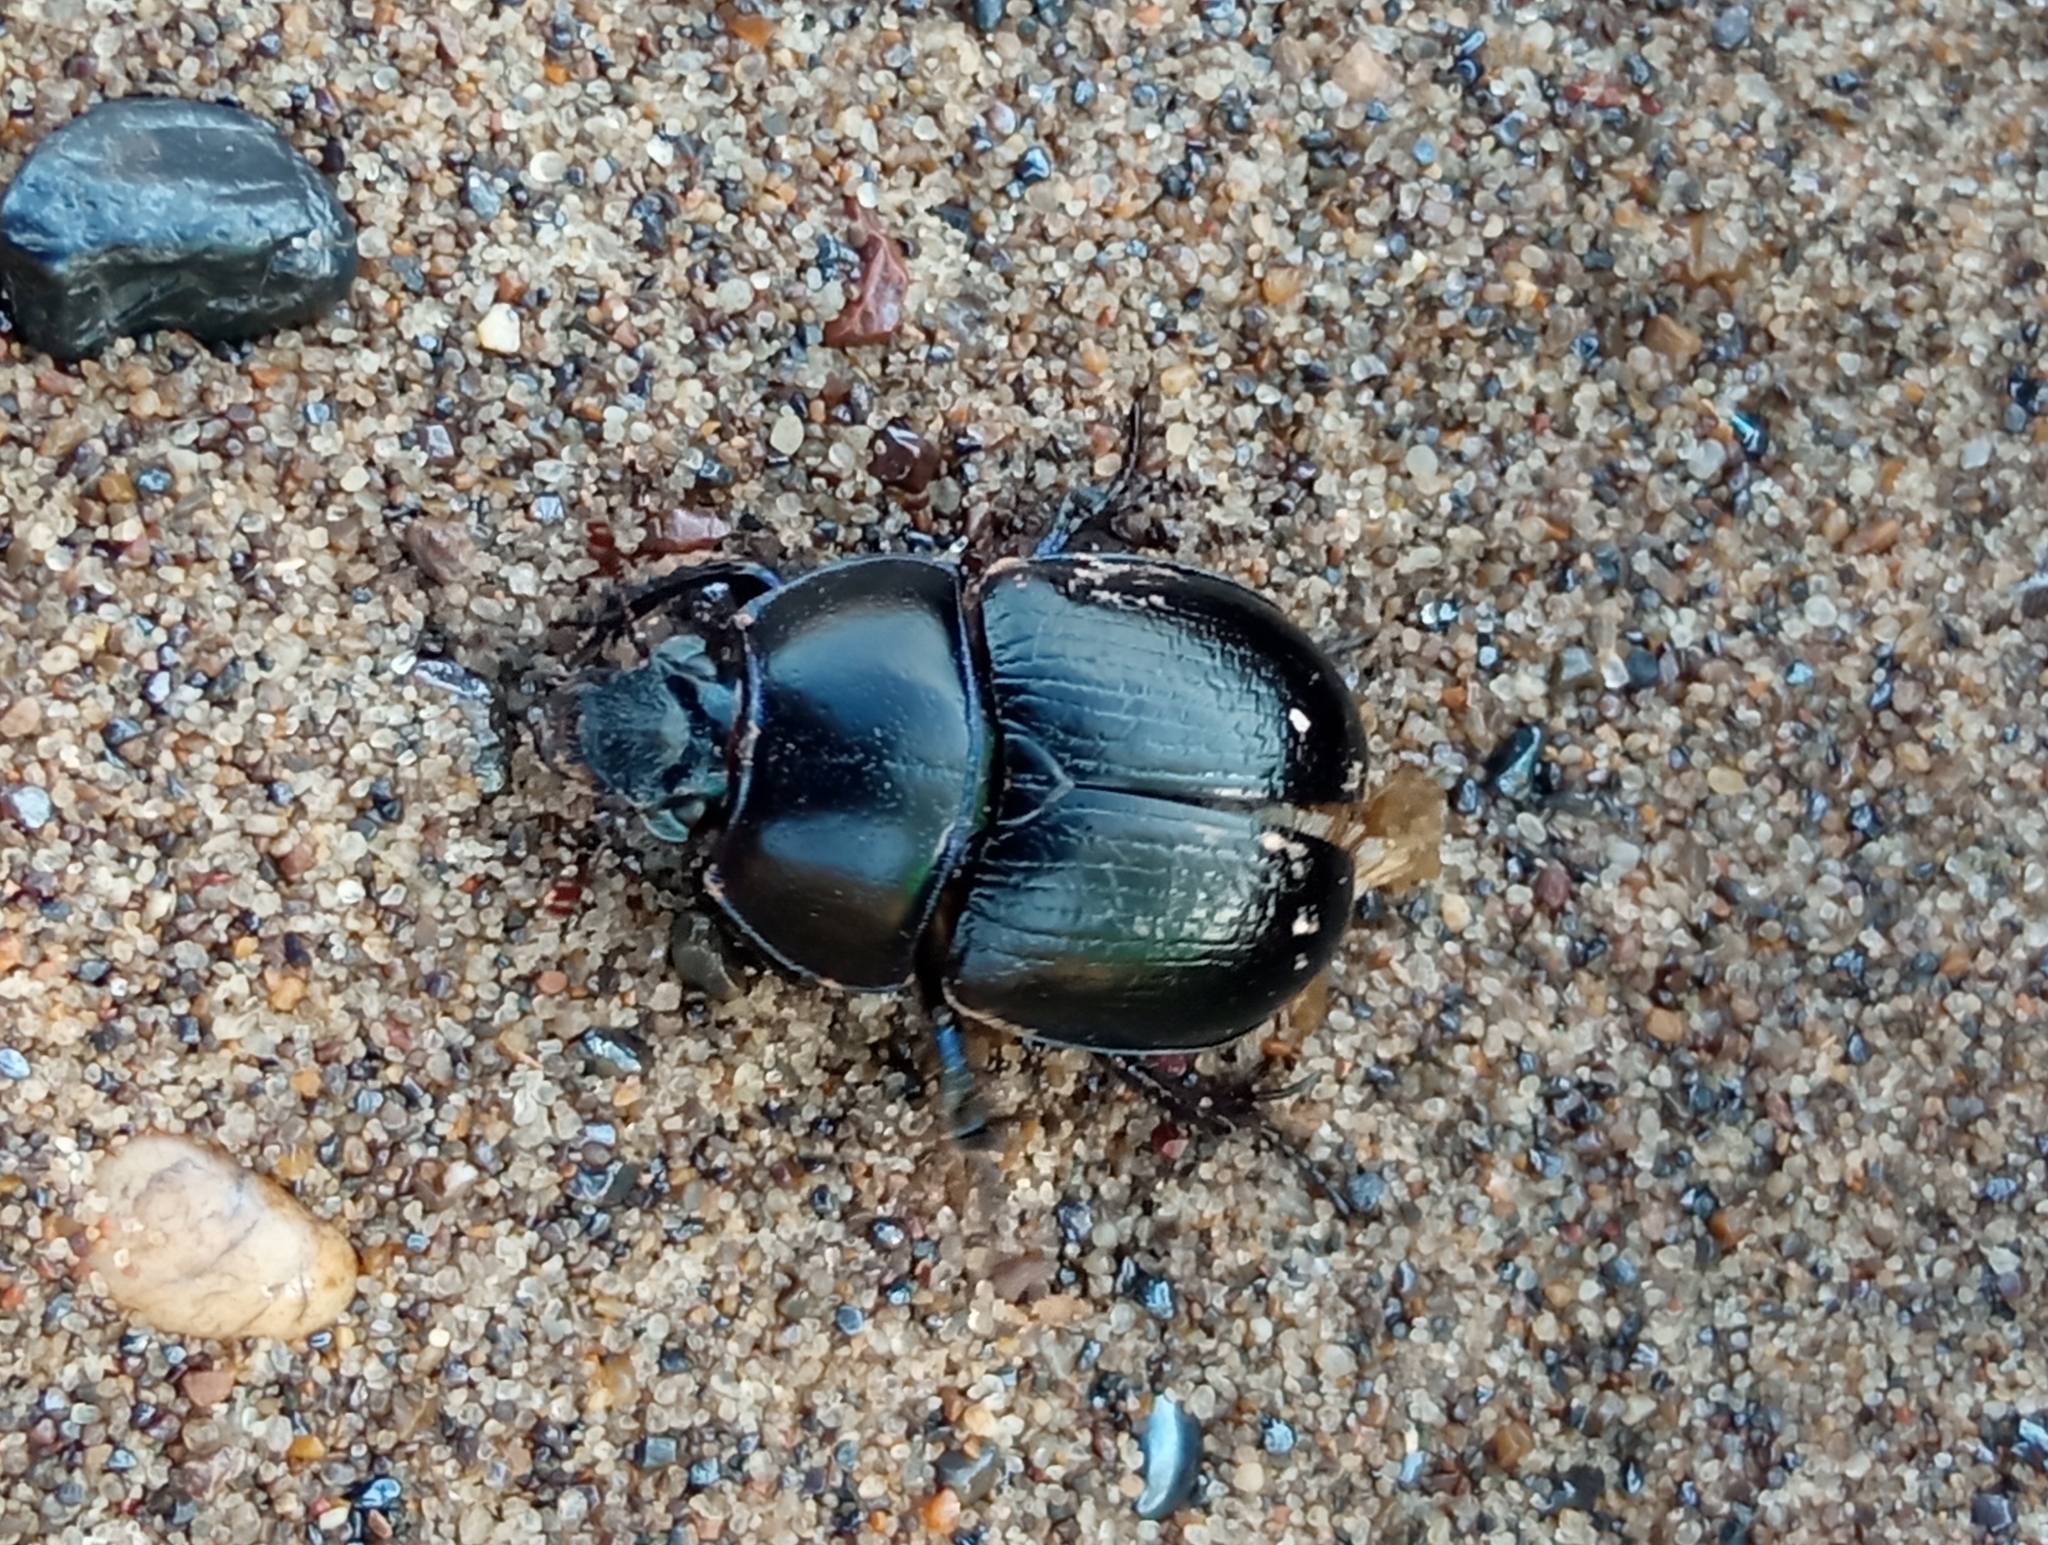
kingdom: Animalia
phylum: Arthropoda
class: Insecta
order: Coleoptera
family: Geotrupidae
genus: Anoplotrupes
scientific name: Anoplotrupes stercorosus
